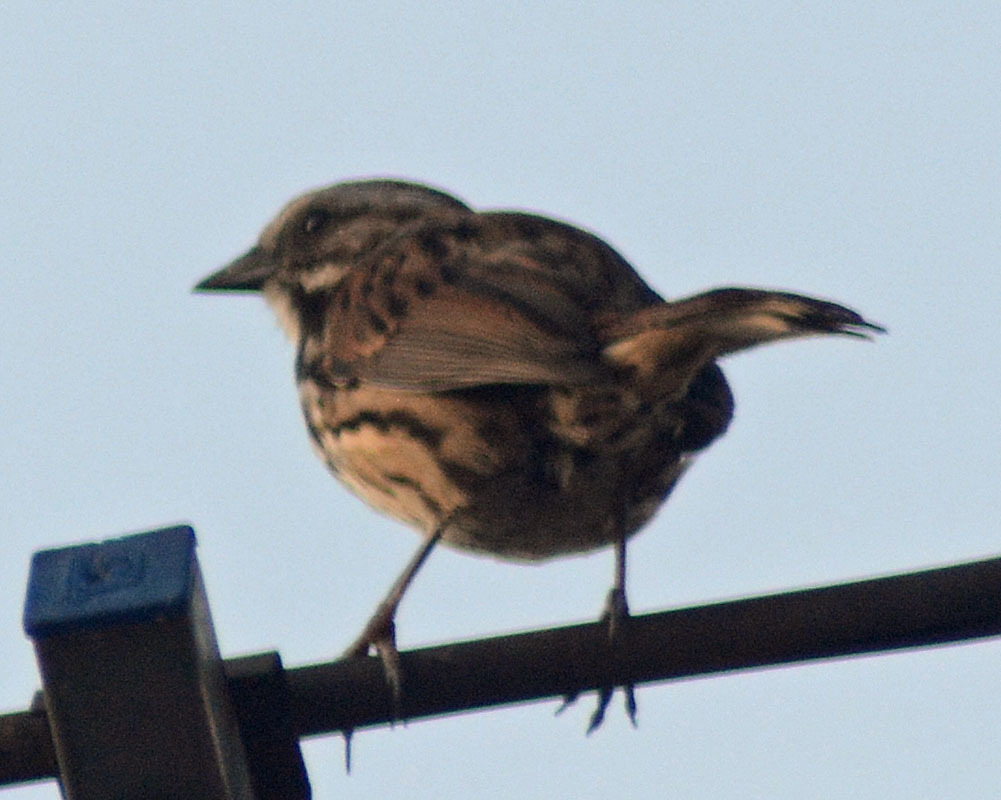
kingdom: Animalia
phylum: Chordata
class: Aves
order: Passeriformes
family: Passerellidae
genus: Melospiza
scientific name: Melospiza melodia
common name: Song sparrow
